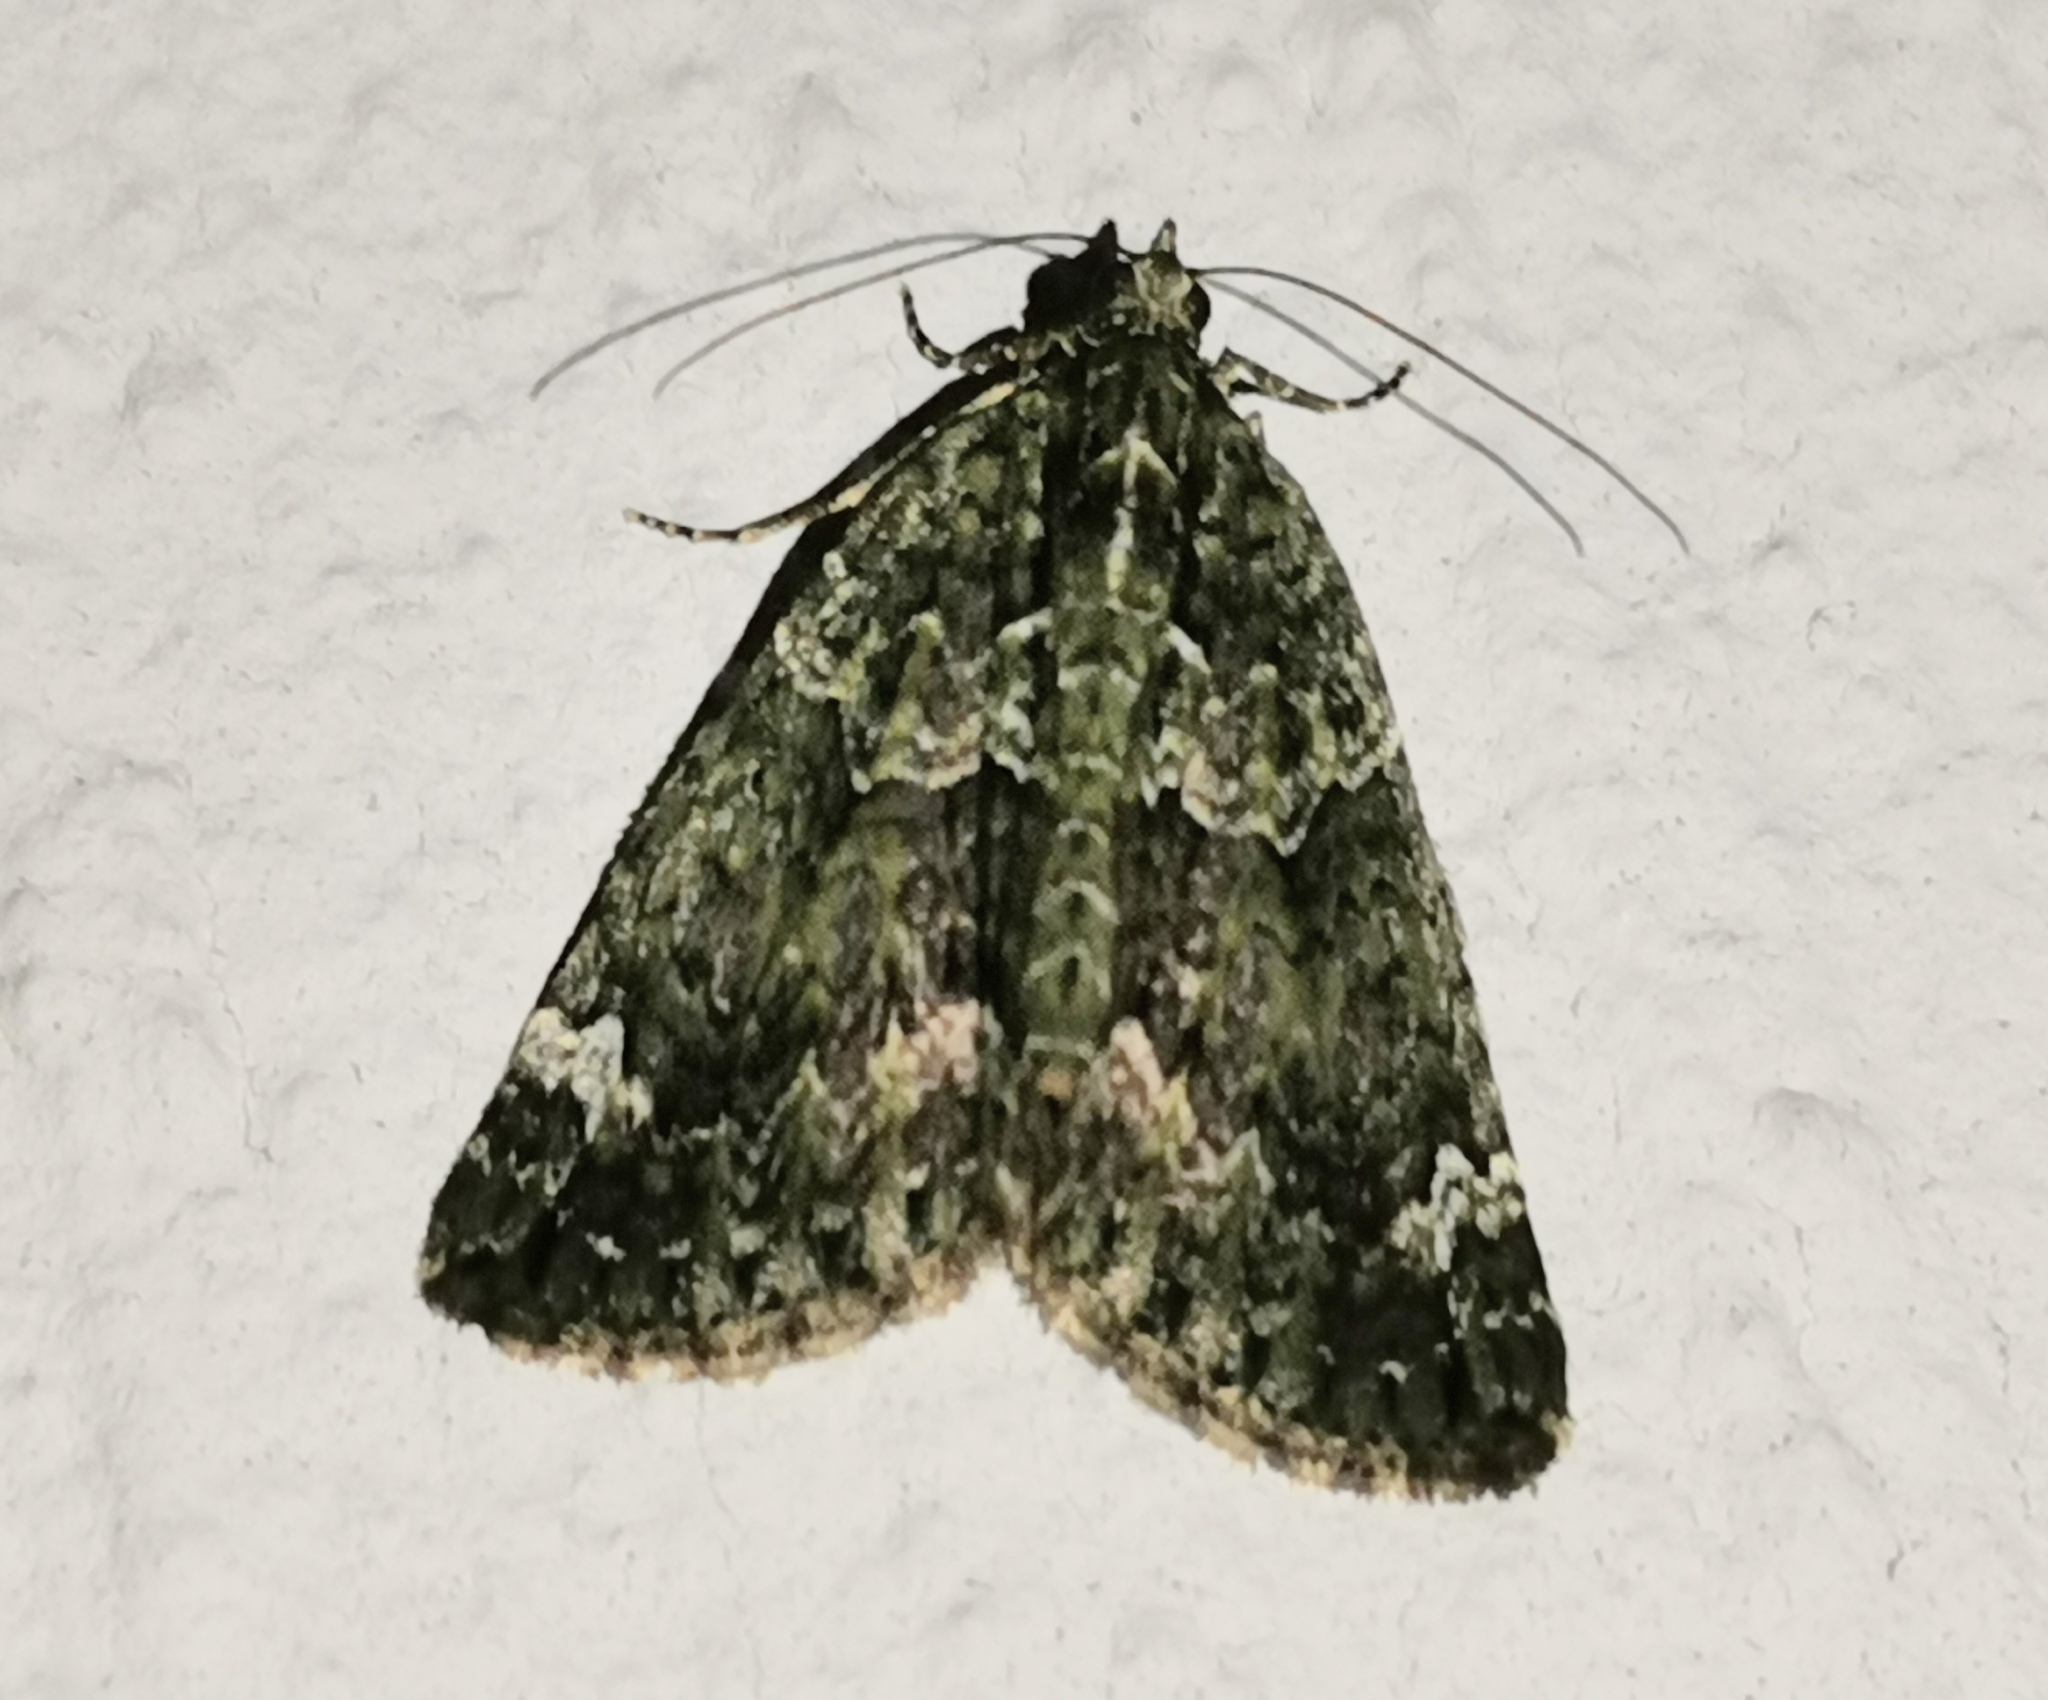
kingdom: Animalia
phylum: Arthropoda
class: Insecta
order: Lepidoptera
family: Geometridae
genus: Chloroclysta
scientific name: Chloroclysta siterata
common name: Red-green carpet
